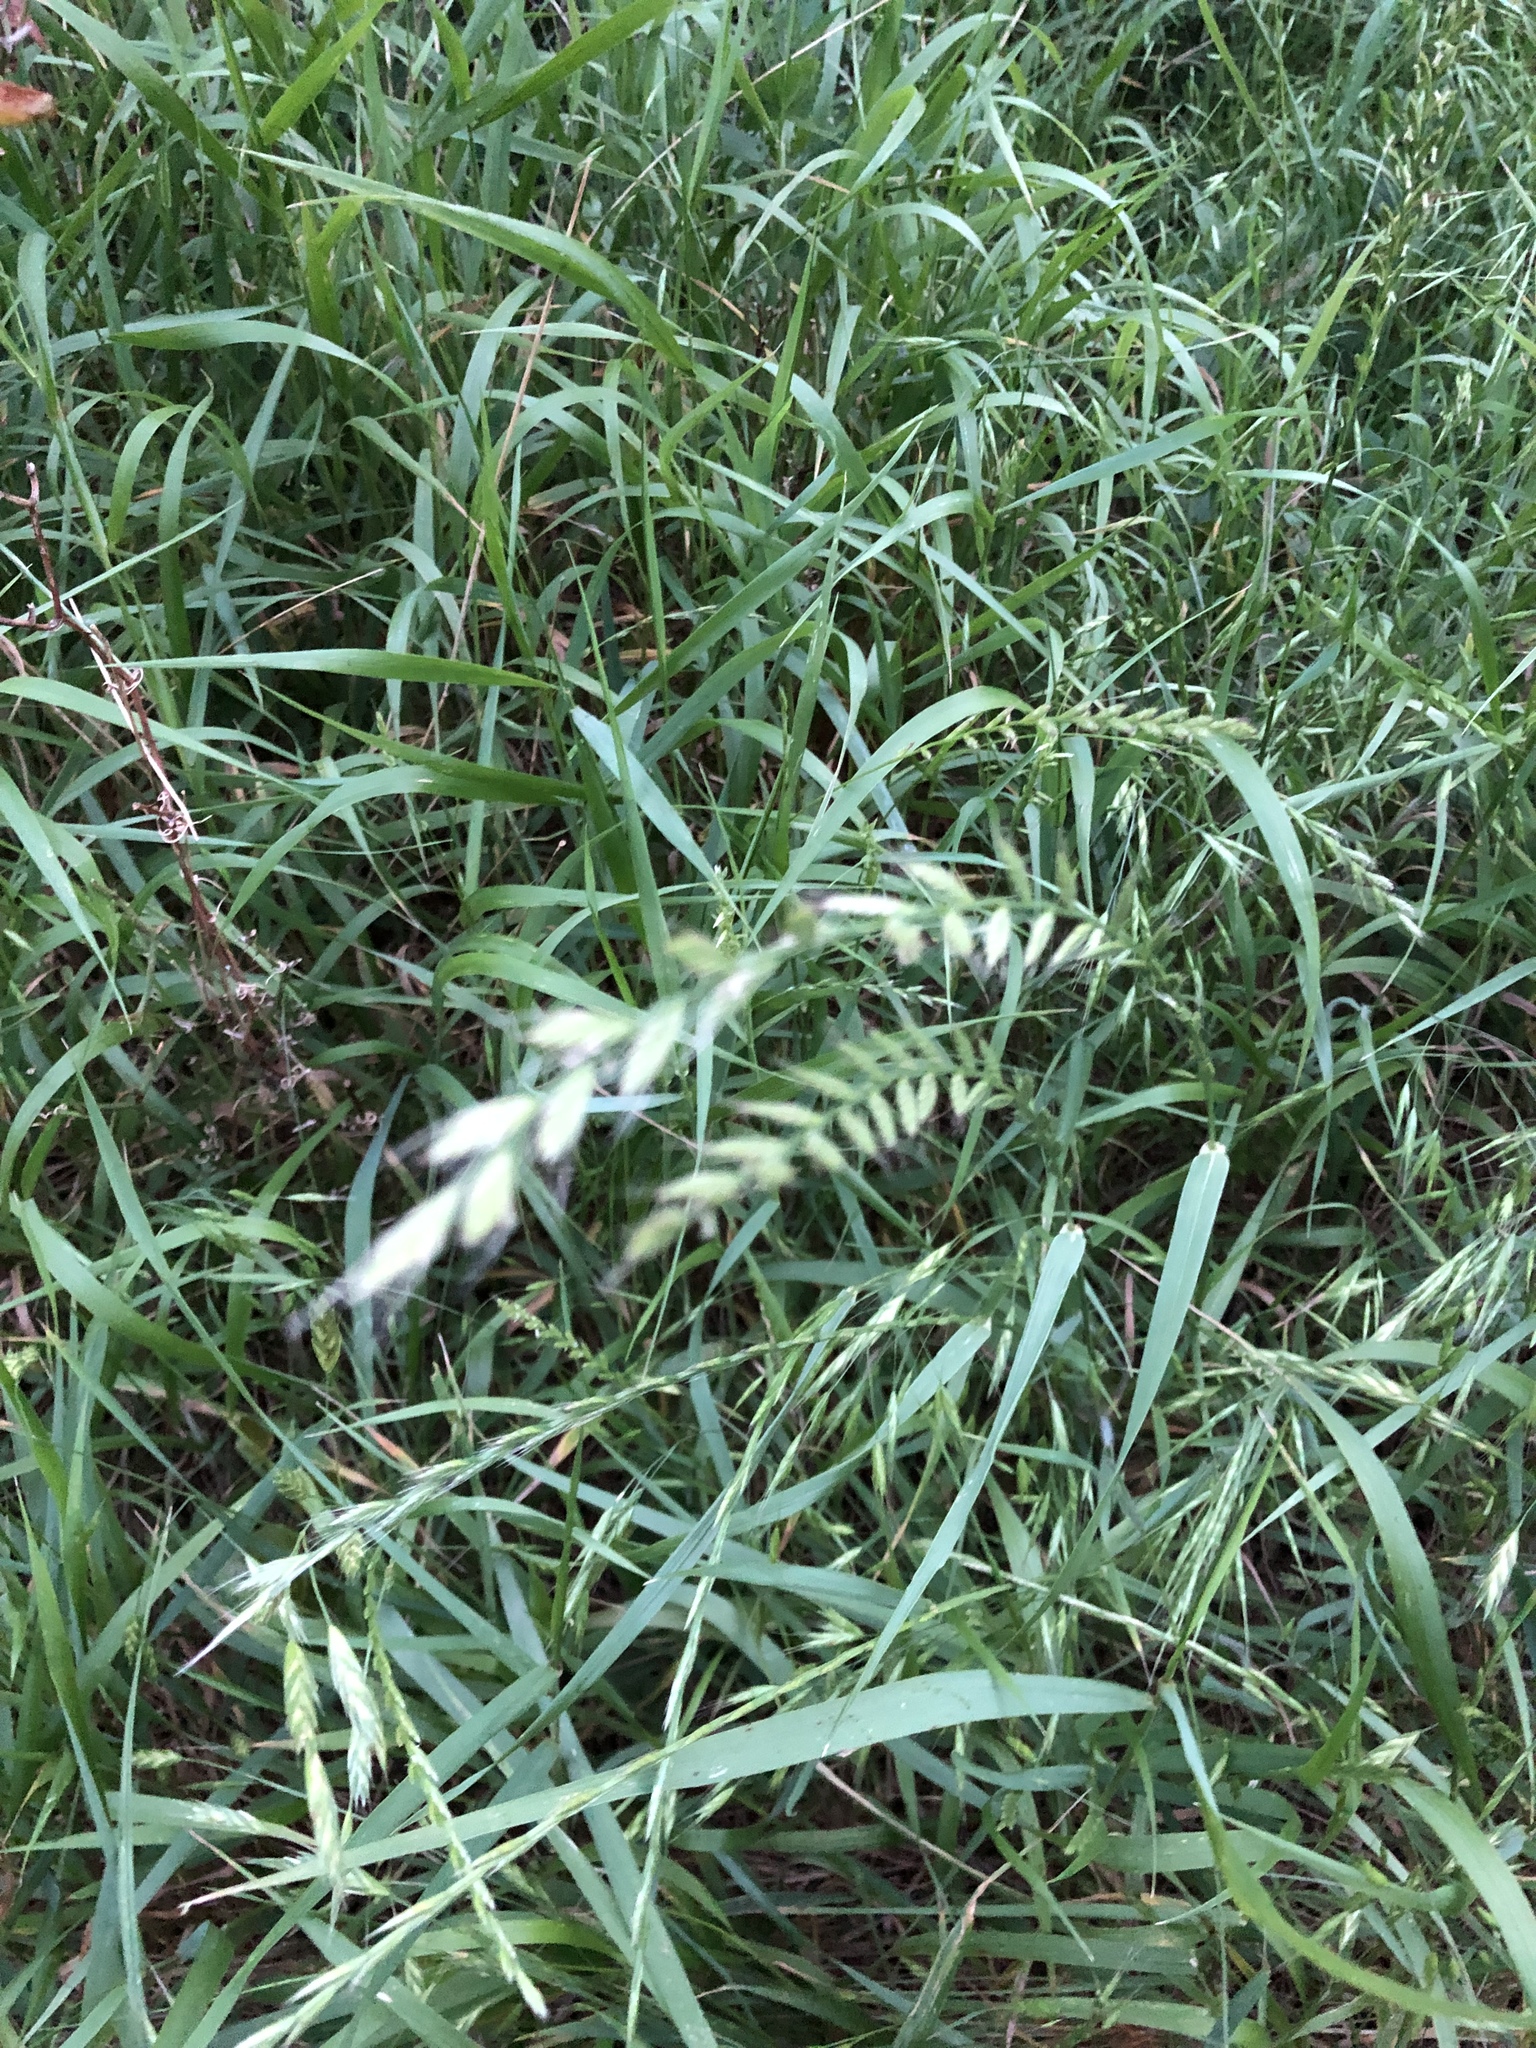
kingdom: Plantae
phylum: Tracheophyta
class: Liliopsida
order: Poales
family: Poaceae
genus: Lolium
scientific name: Lolium perenne
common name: Perennial ryegrass
